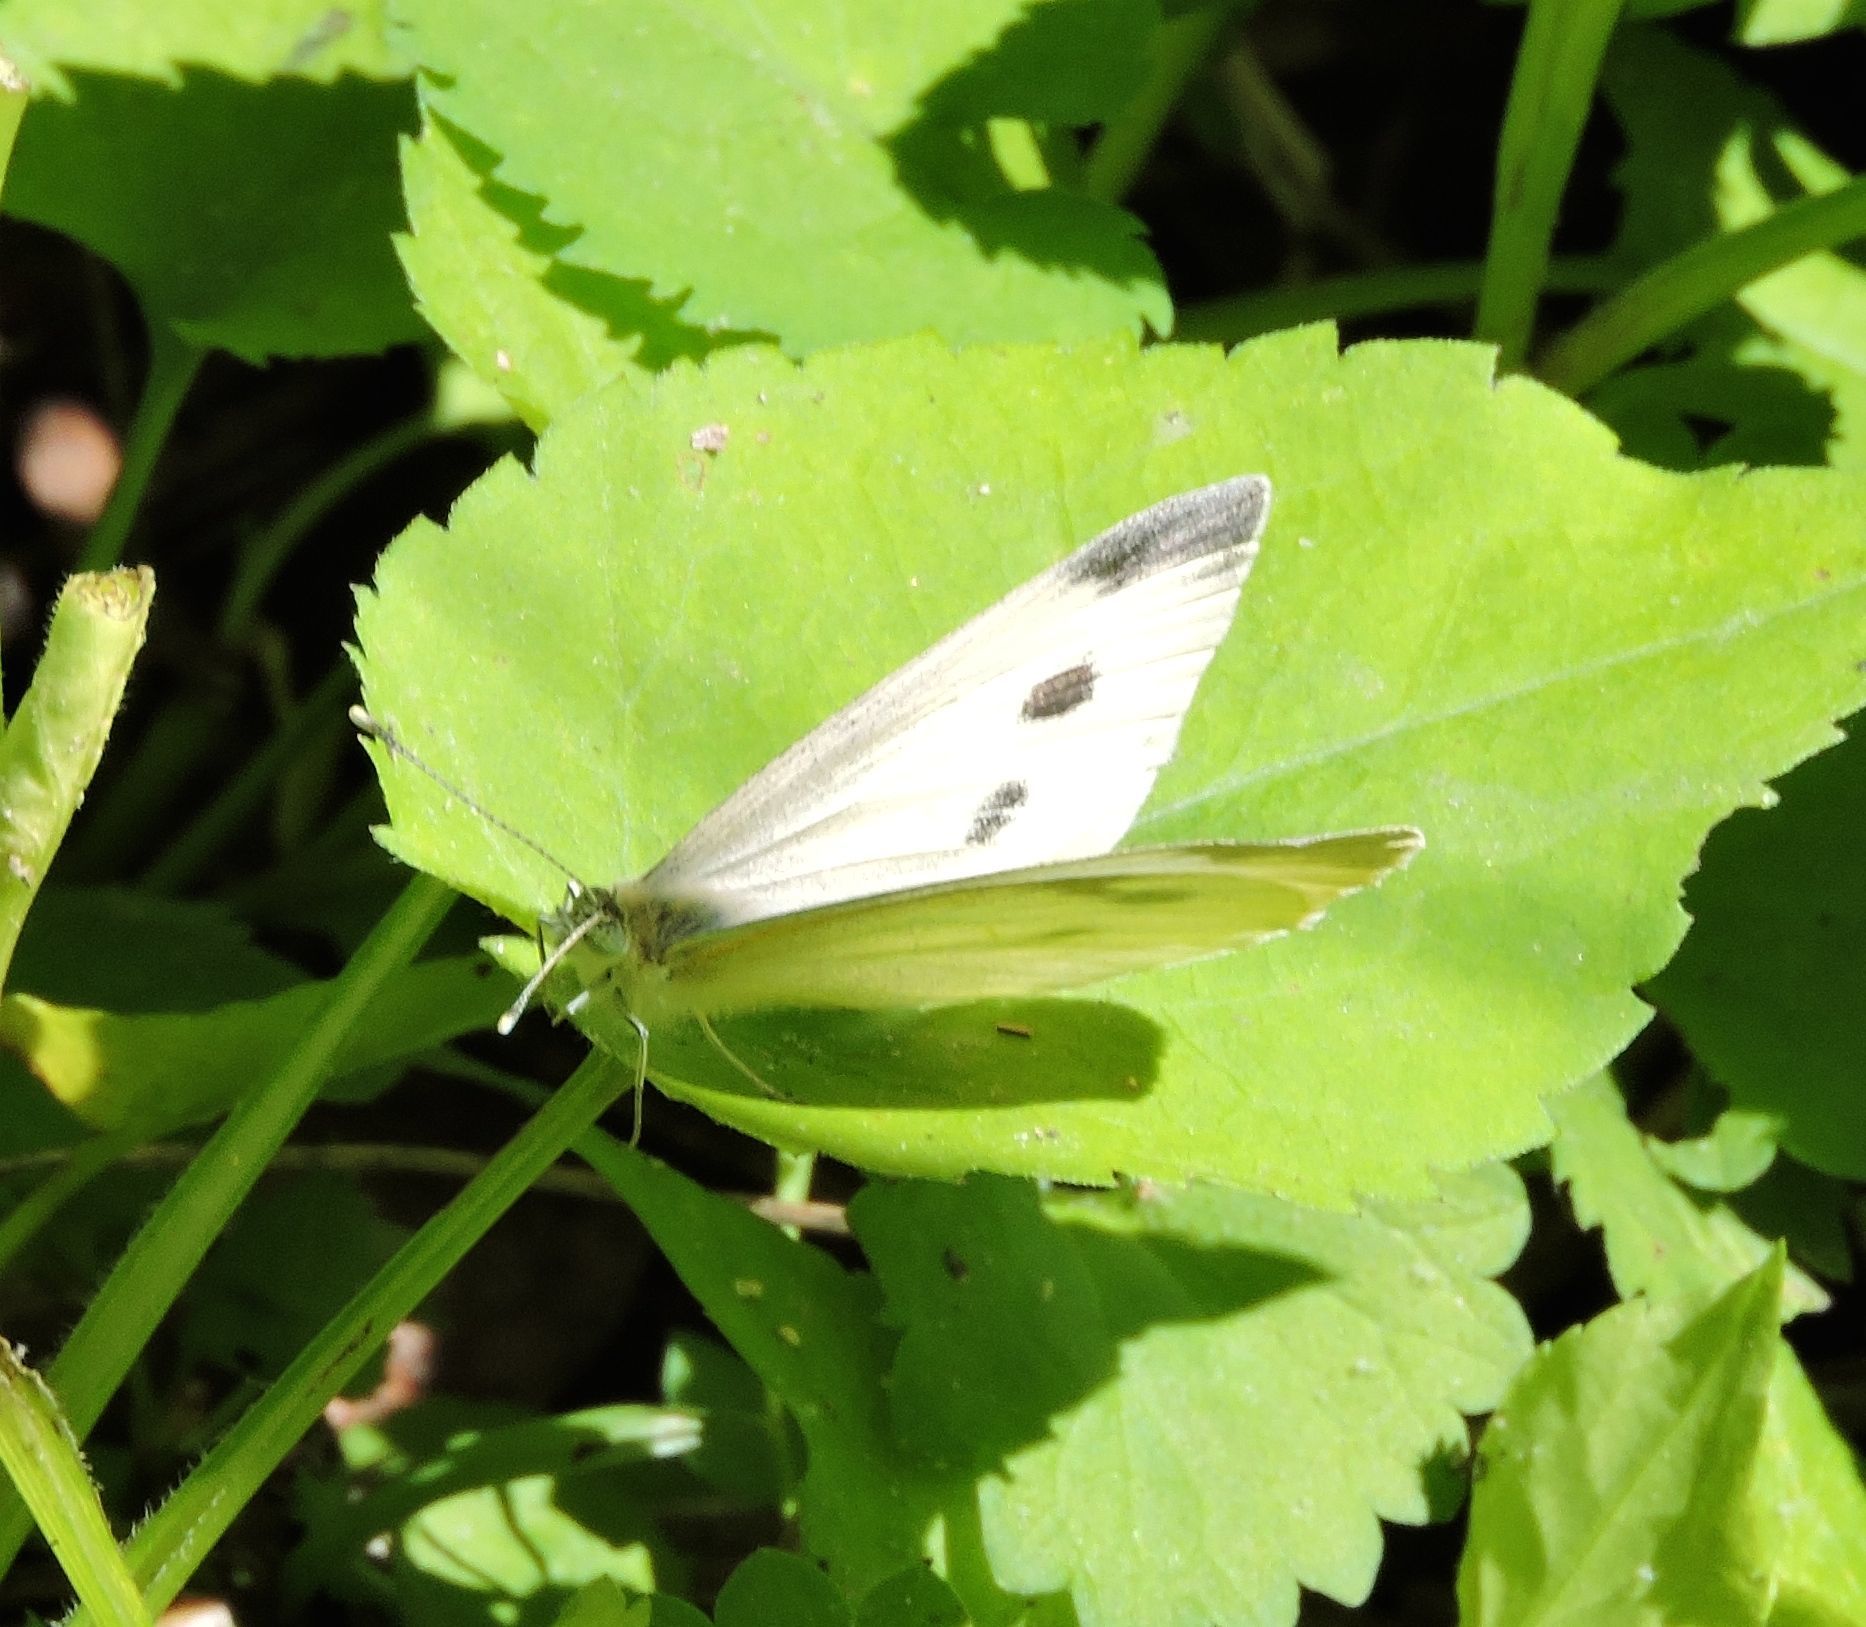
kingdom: Animalia
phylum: Arthropoda
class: Insecta
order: Lepidoptera
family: Pieridae
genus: Pieris
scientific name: Pieris rapae
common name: Small white
